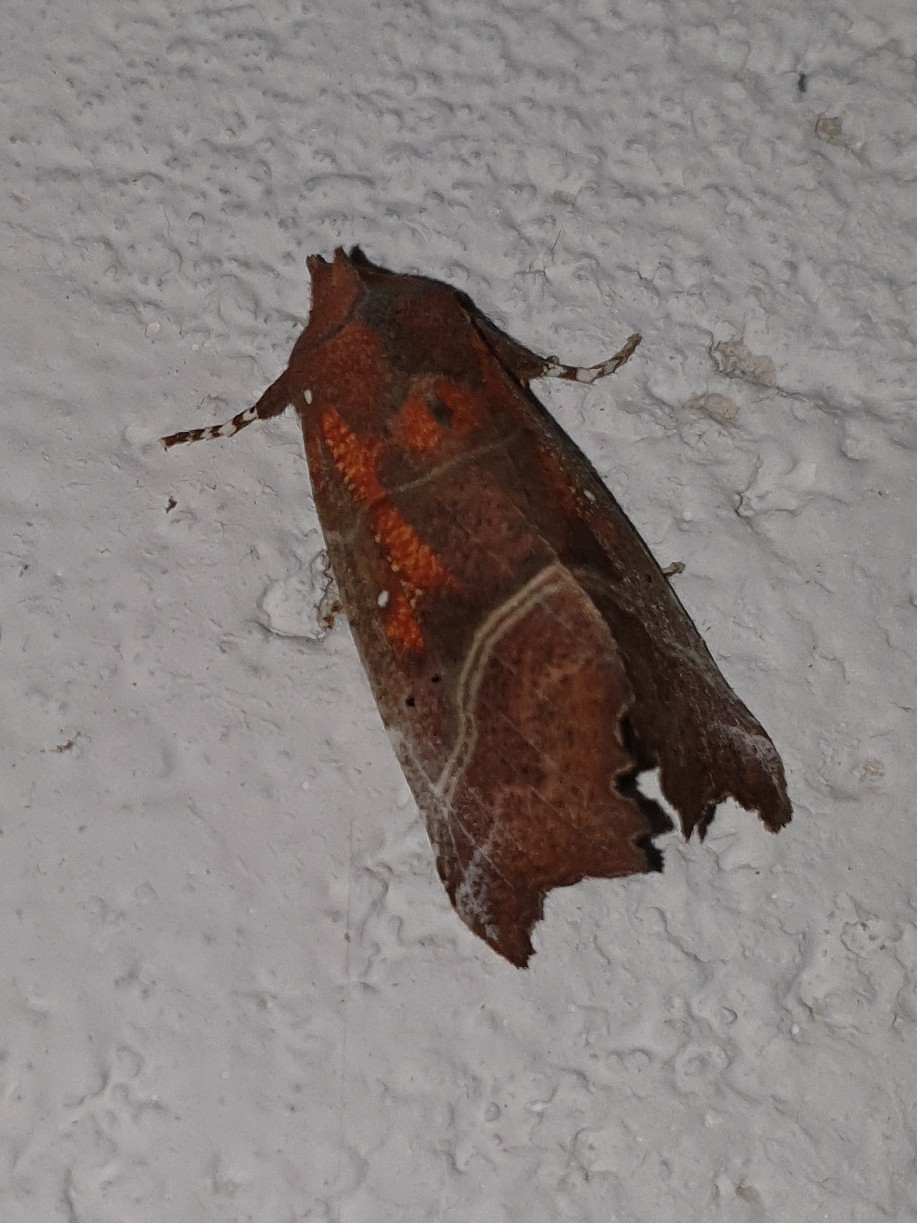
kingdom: Animalia
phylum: Arthropoda
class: Insecta
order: Lepidoptera
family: Erebidae
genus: Scoliopteryx
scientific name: Scoliopteryx libatrix
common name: Herald
